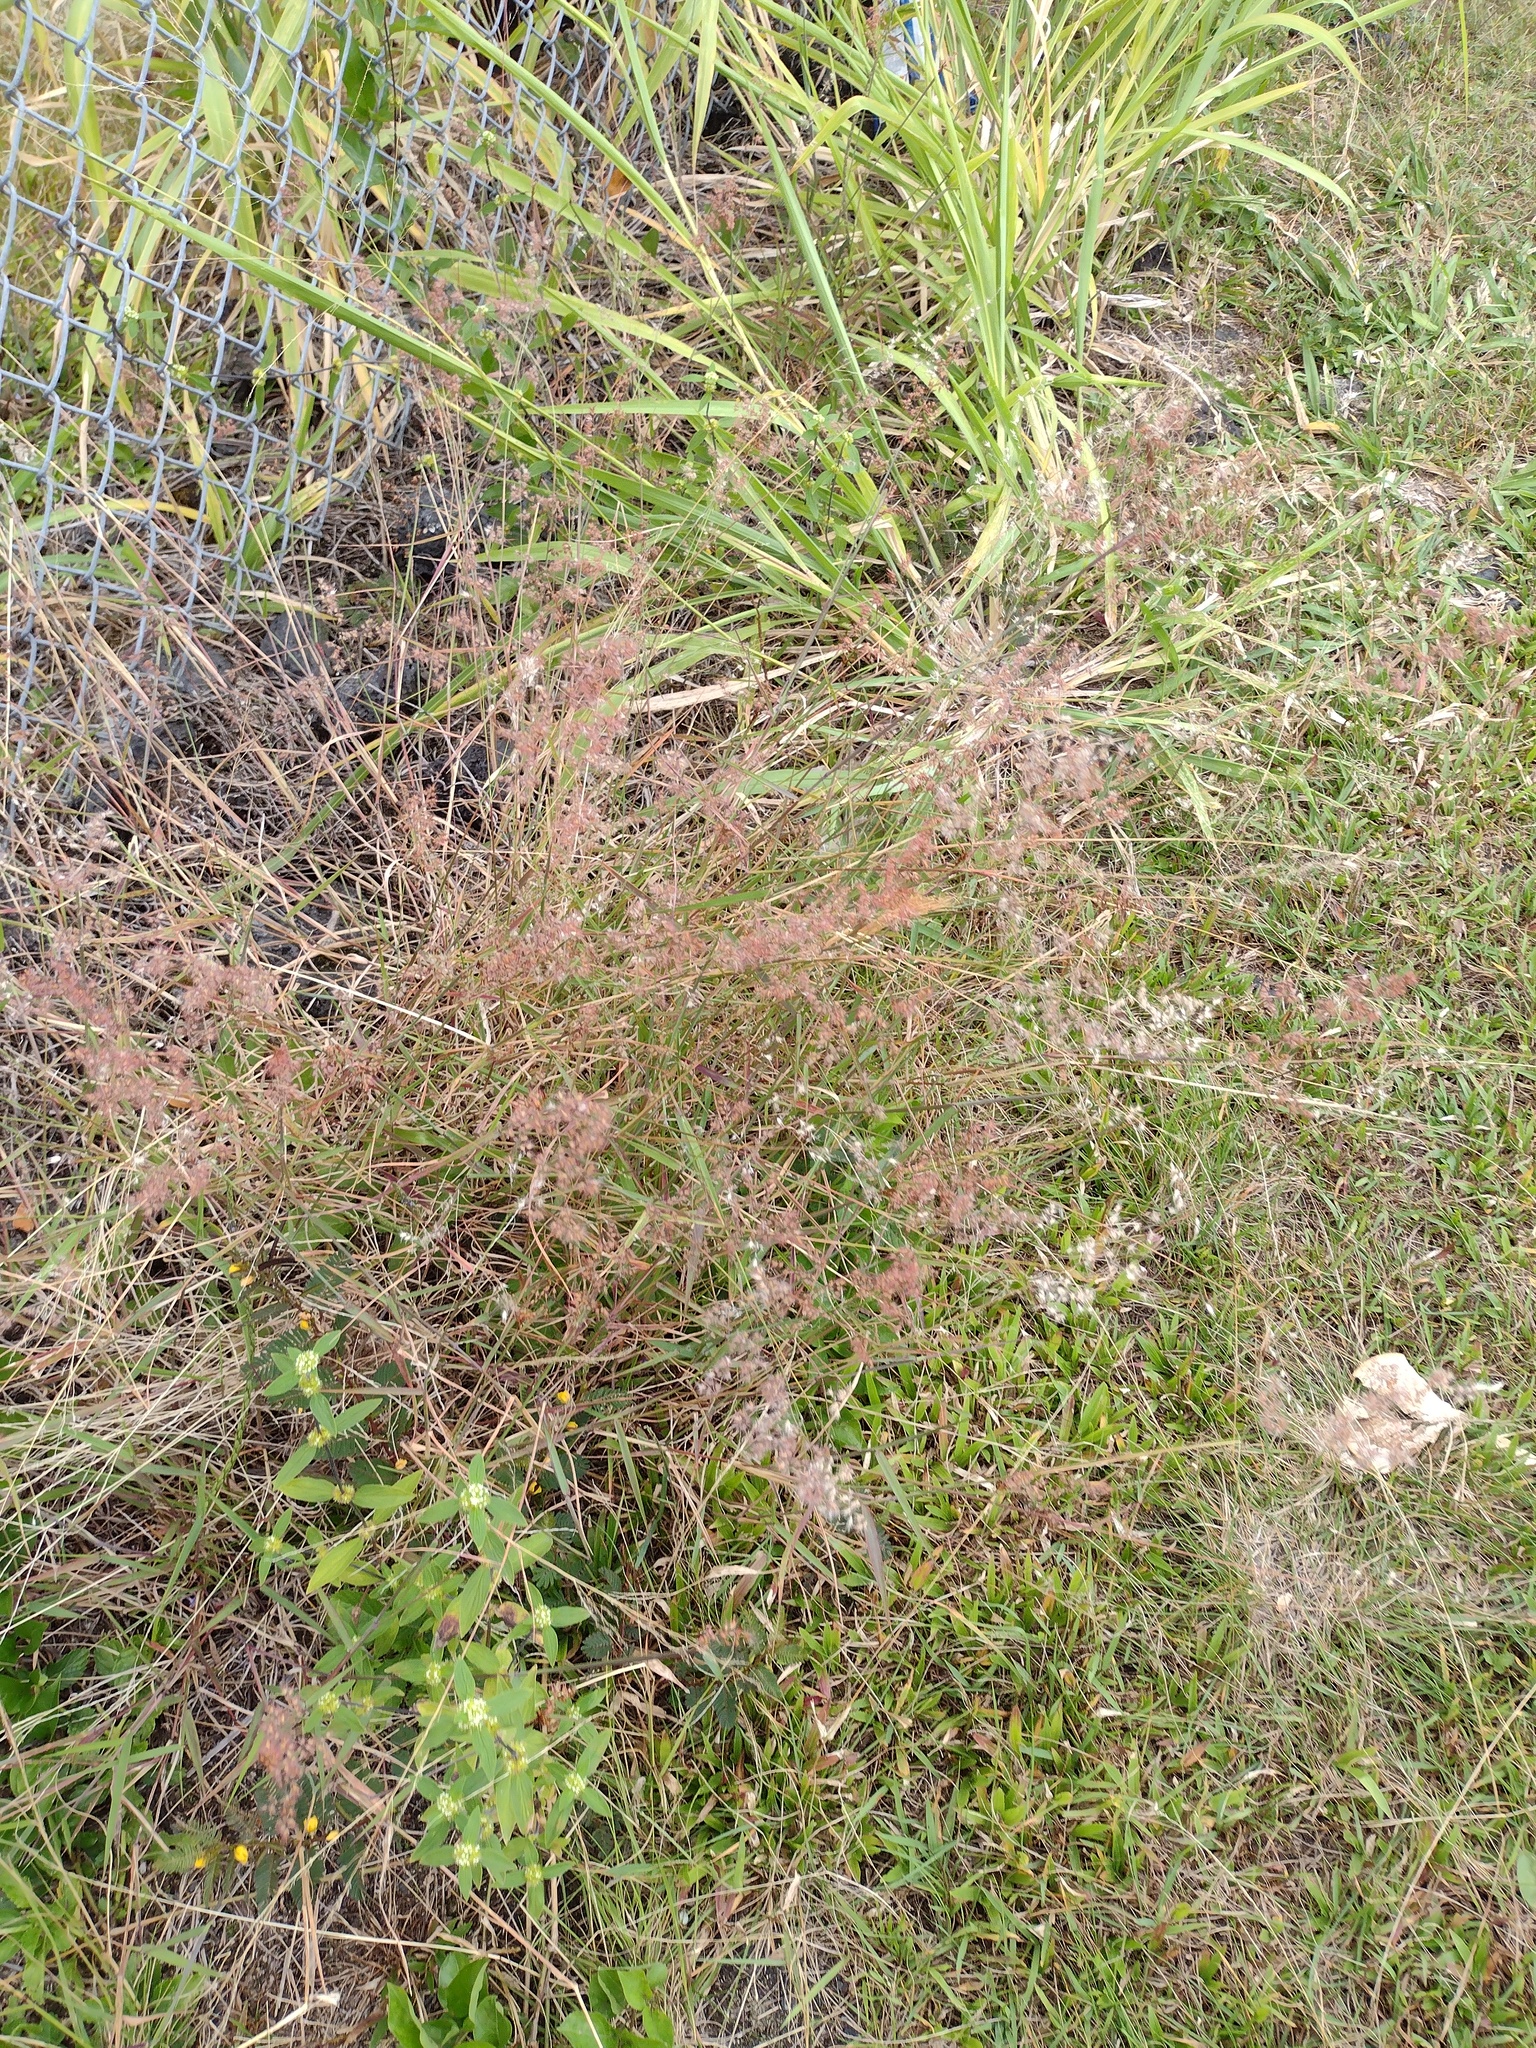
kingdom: Plantae
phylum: Tracheophyta
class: Liliopsida
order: Poales
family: Poaceae
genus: Melinis
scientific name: Melinis repens
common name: Rose natal grass
